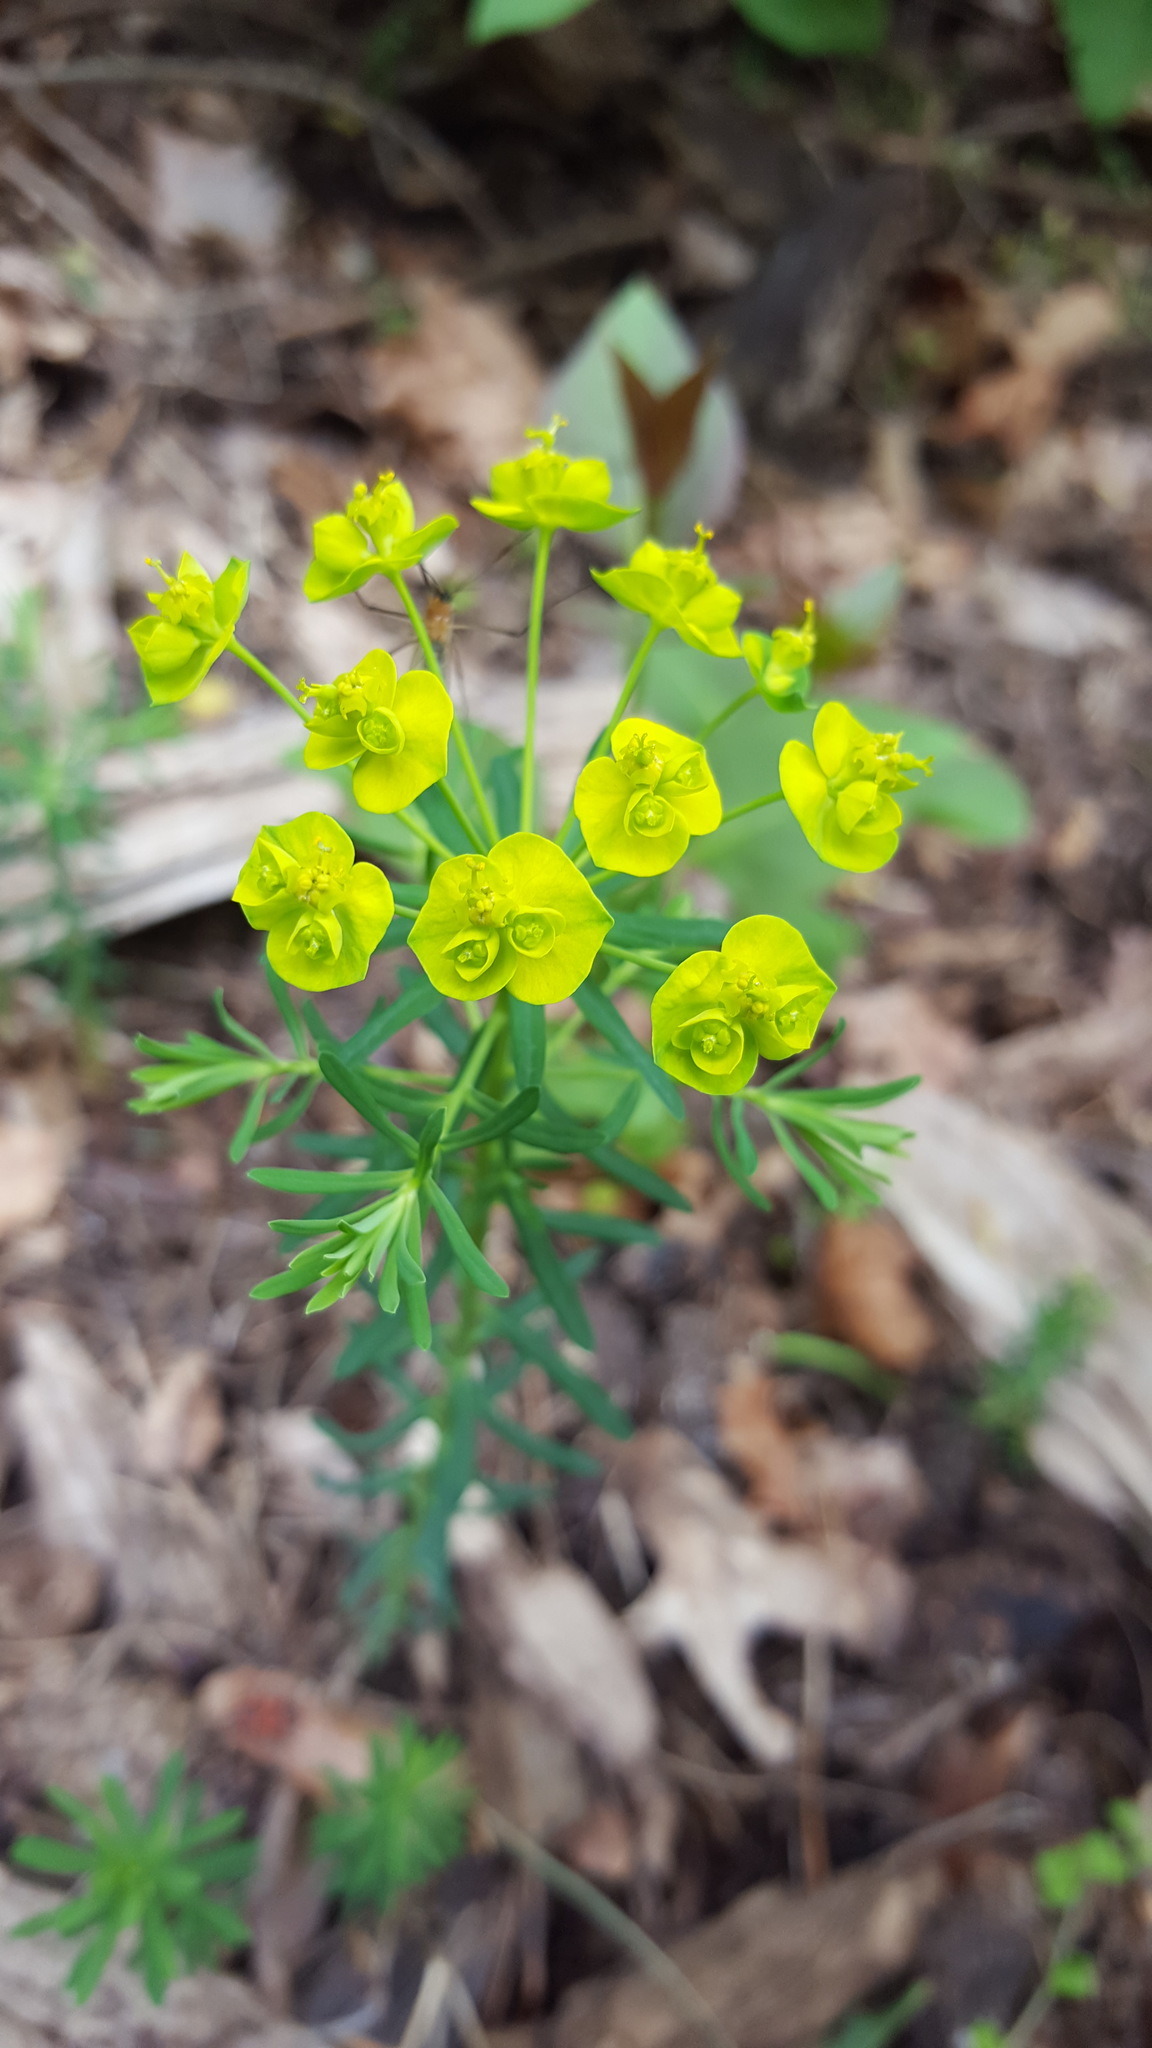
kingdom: Plantae
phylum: Tracheophyta
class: Magnoliopsida
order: Malpighiales
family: Euphorbiaceae
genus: Euphorbia
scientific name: Euphorbia cyparissias
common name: Cypress spurge
